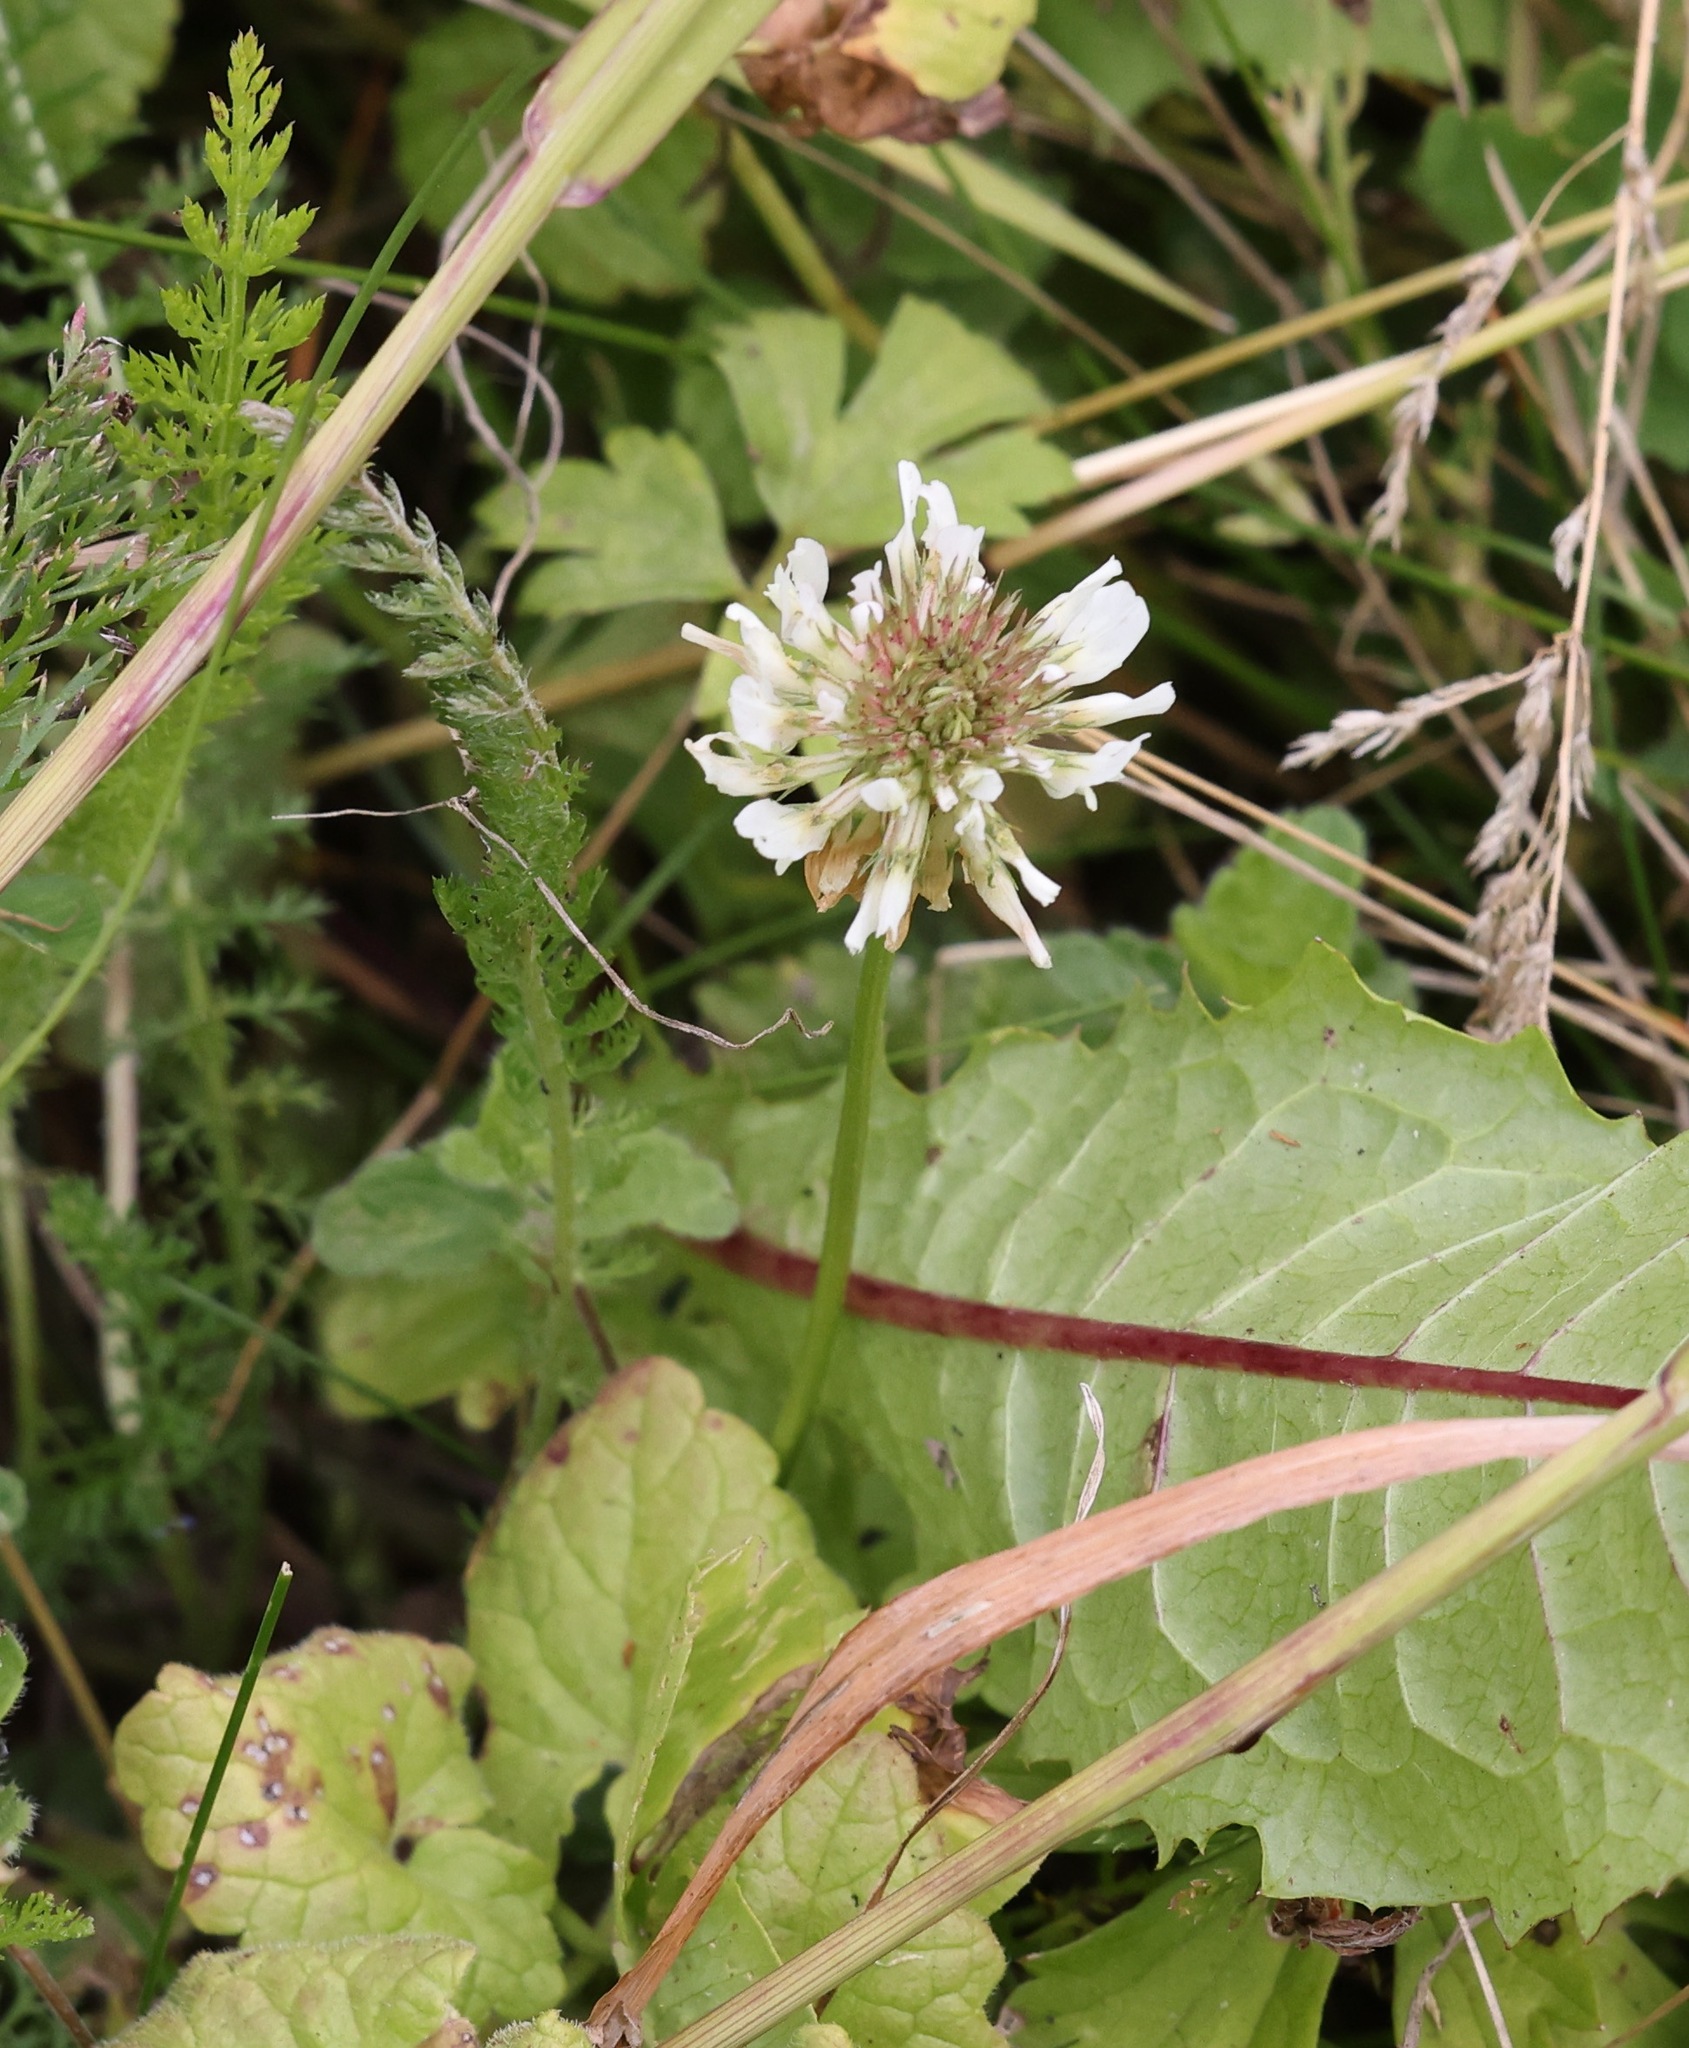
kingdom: Plantae
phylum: Tracheophyta
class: Magnoliopsida
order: Fabales
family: Fabaceae
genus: Trifolium
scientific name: Trifolium repens
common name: White clover
